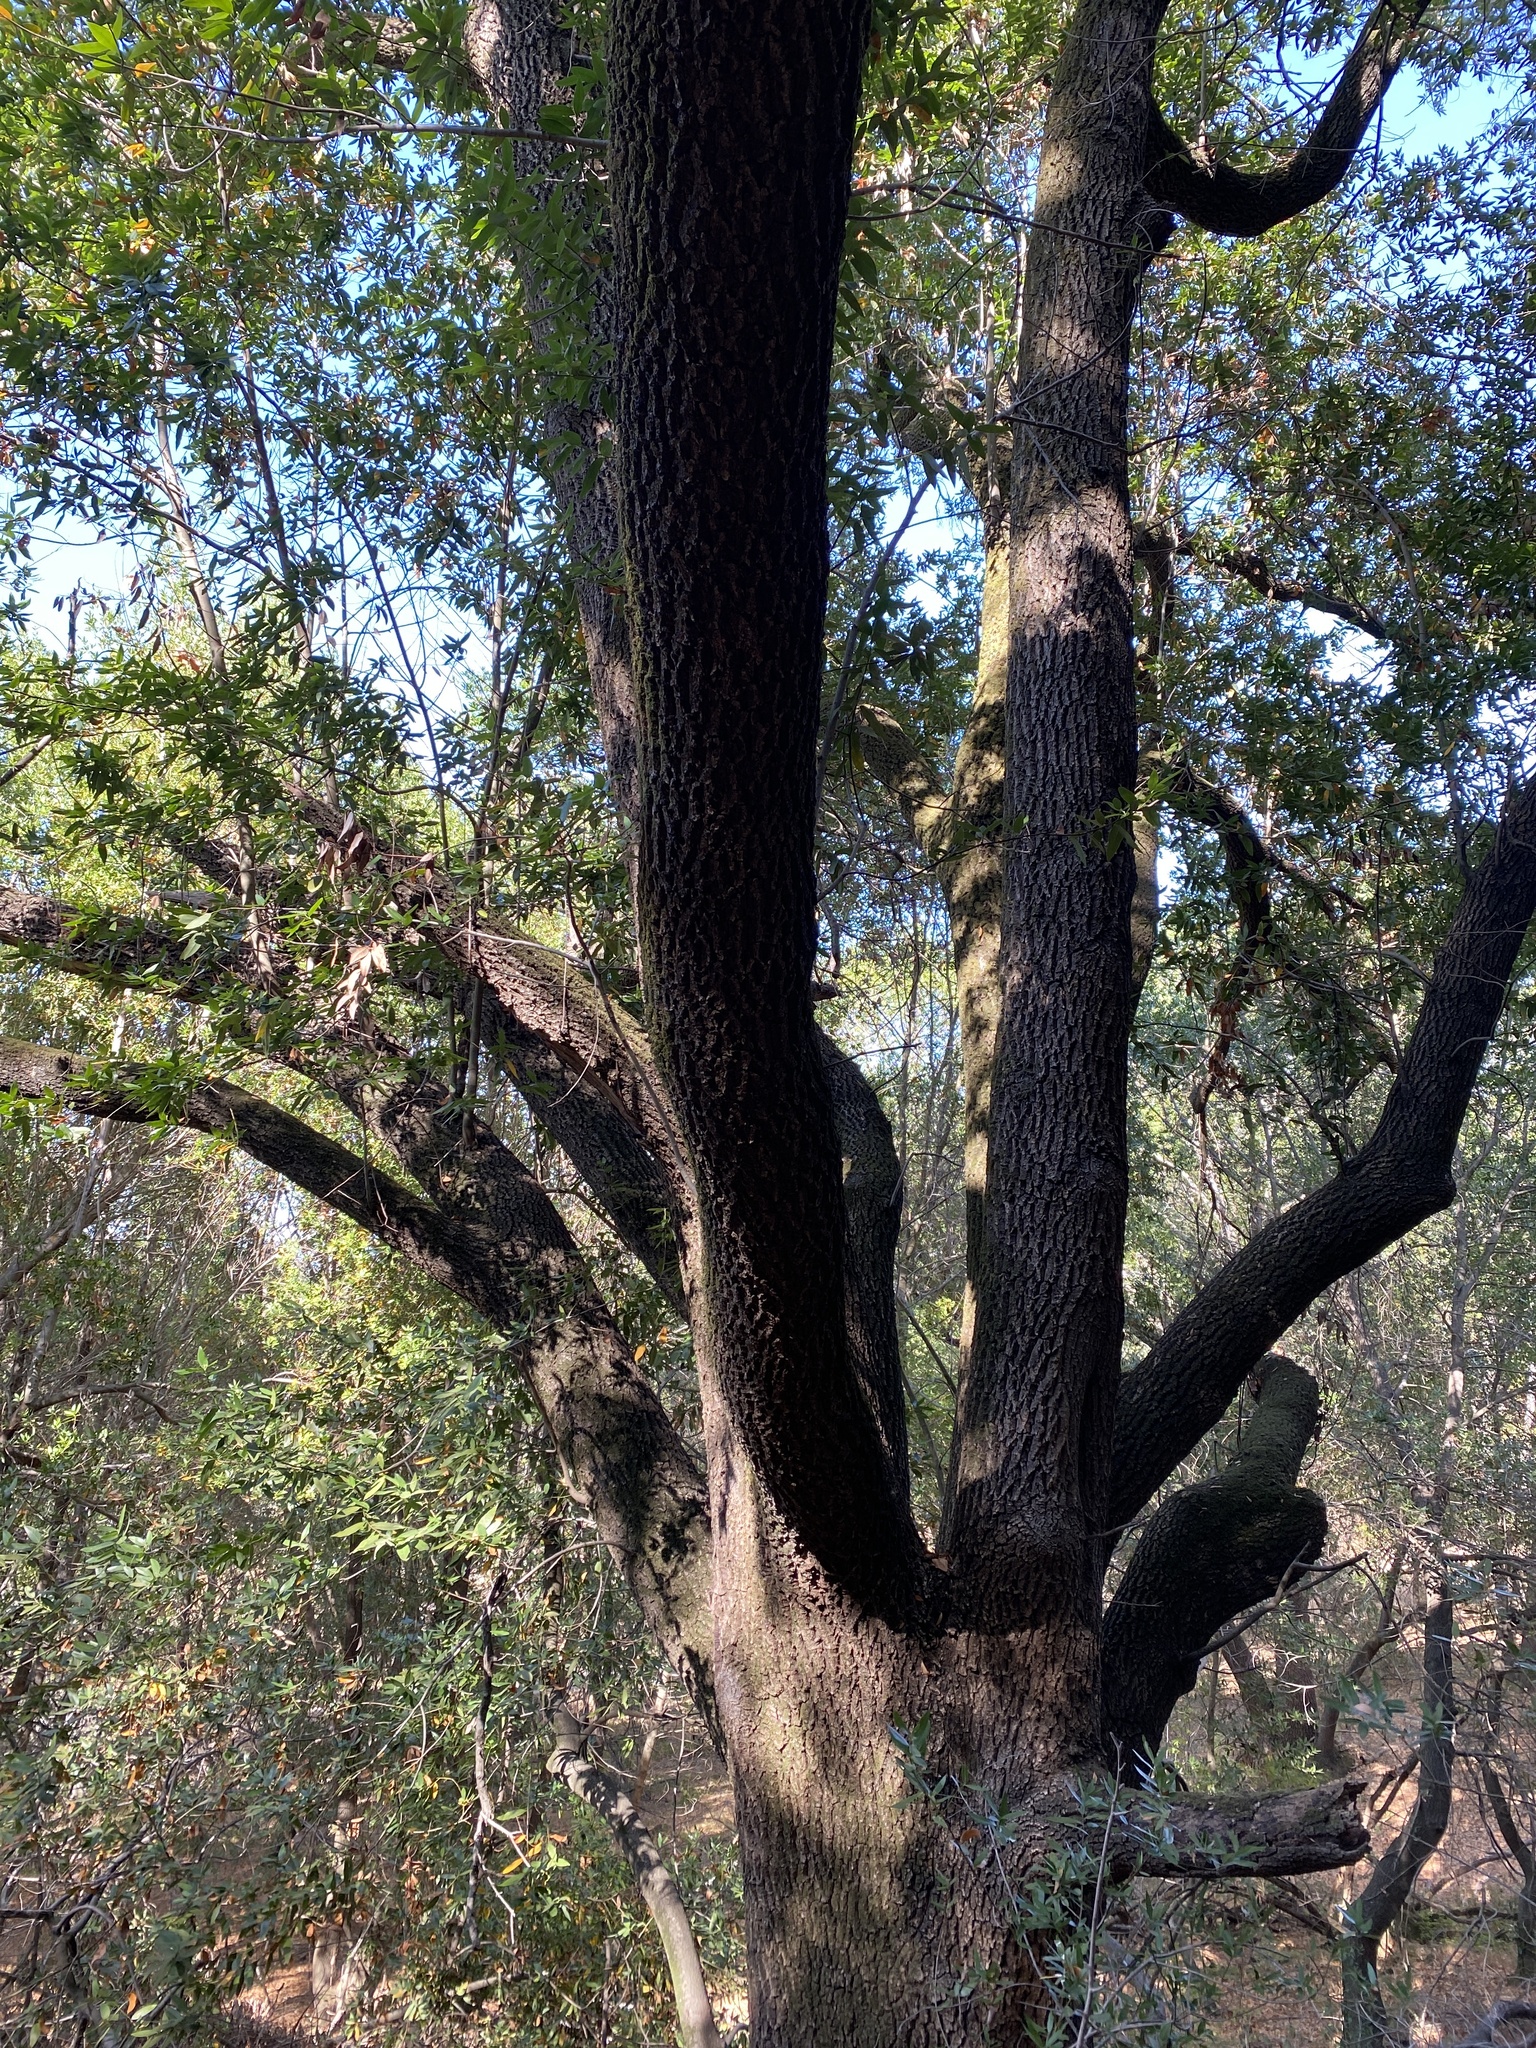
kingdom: Plantae
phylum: Tracheophyta
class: Magnoliopsida
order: Laurales
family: Lauraceae
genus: Umbellularia
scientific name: Umbellularia californica
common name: California bay
